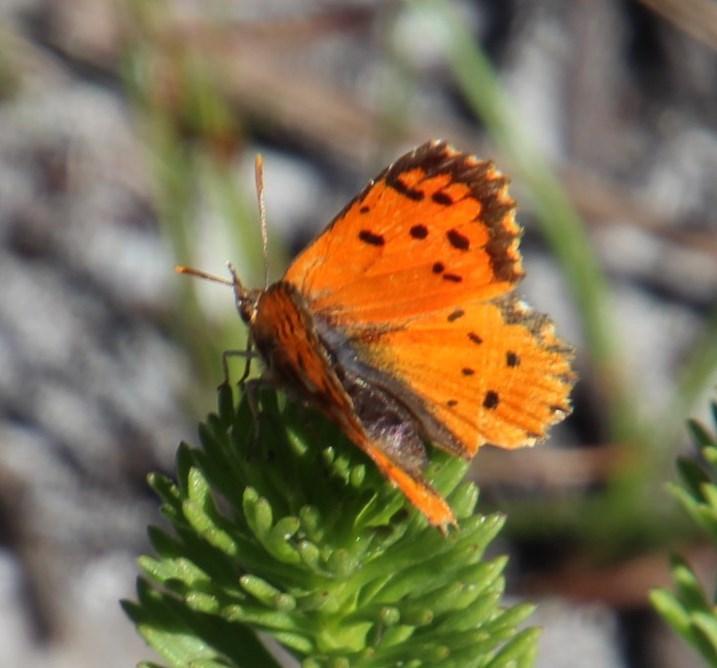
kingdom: Animalia
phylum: Arthropoda
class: Insecta
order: Lepidoptera
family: Lycaenidae
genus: Chrysoritis
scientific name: Chrysoritis
